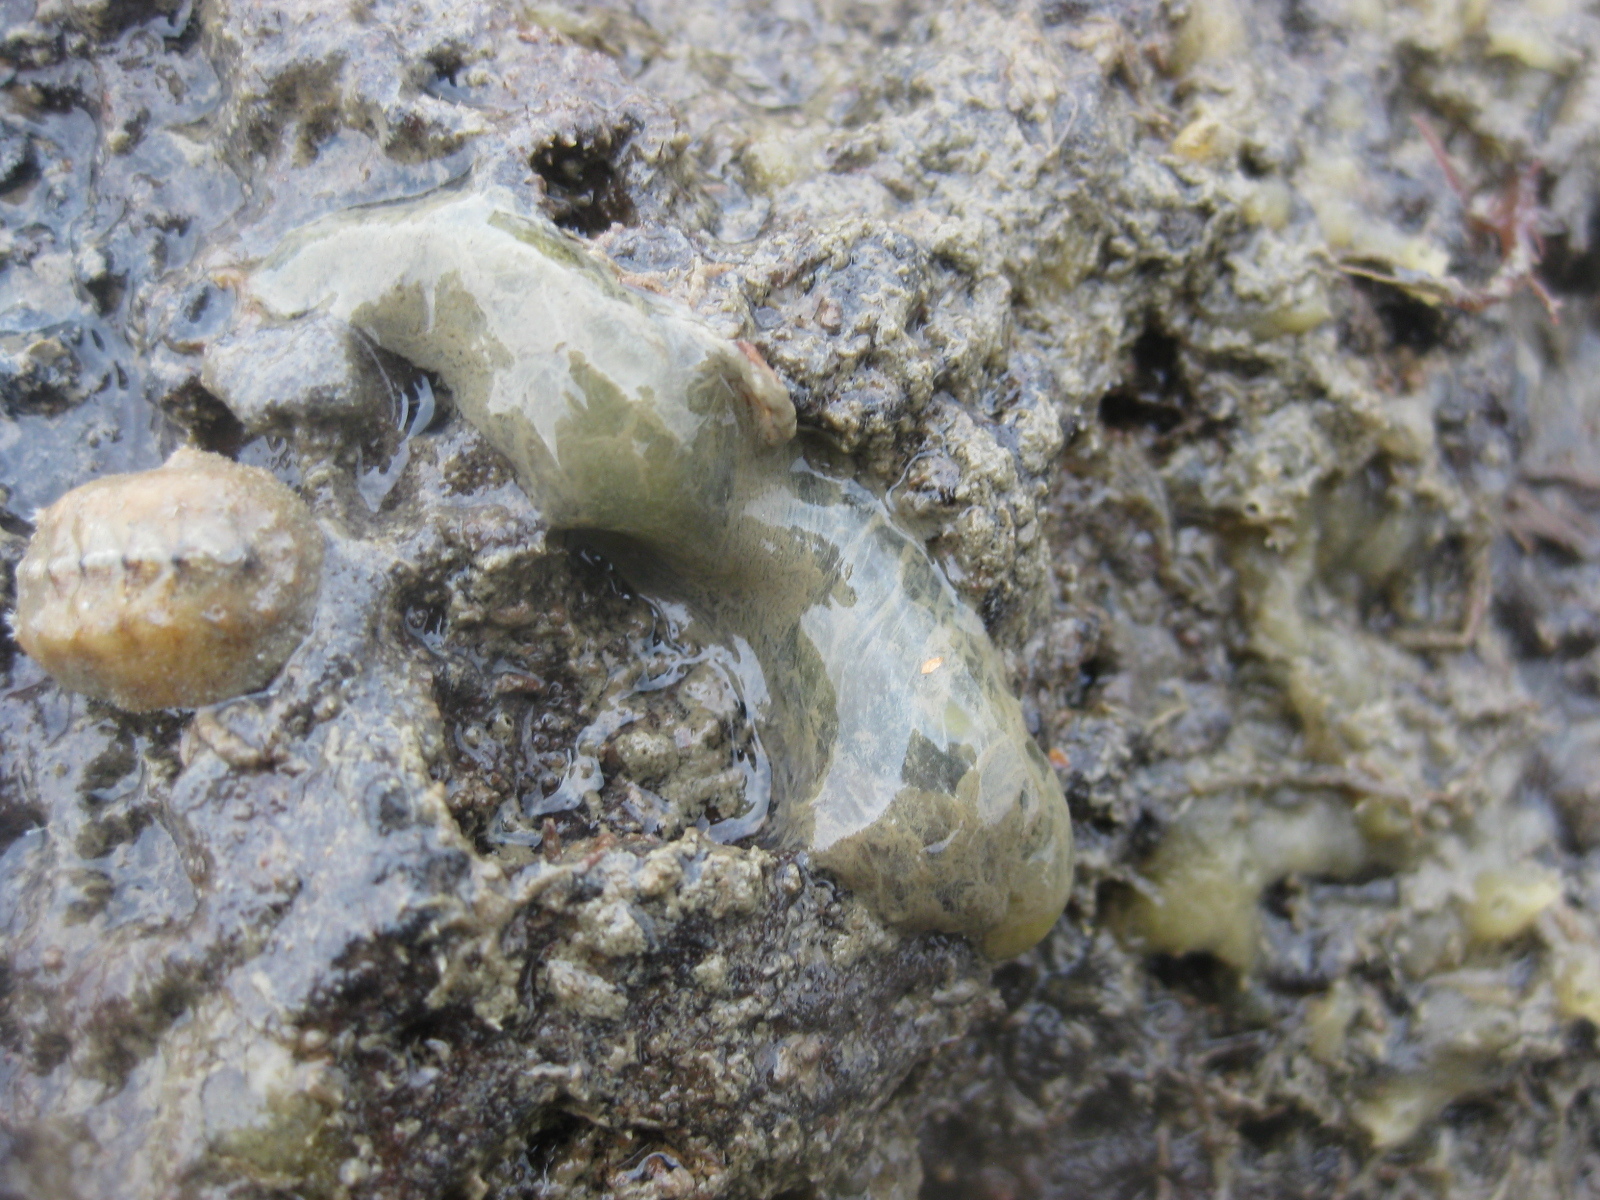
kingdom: Animalia
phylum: Annelida
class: Polychaeta
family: Flabelligeridae
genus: Flabelligera
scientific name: Flabelligera bicolor
